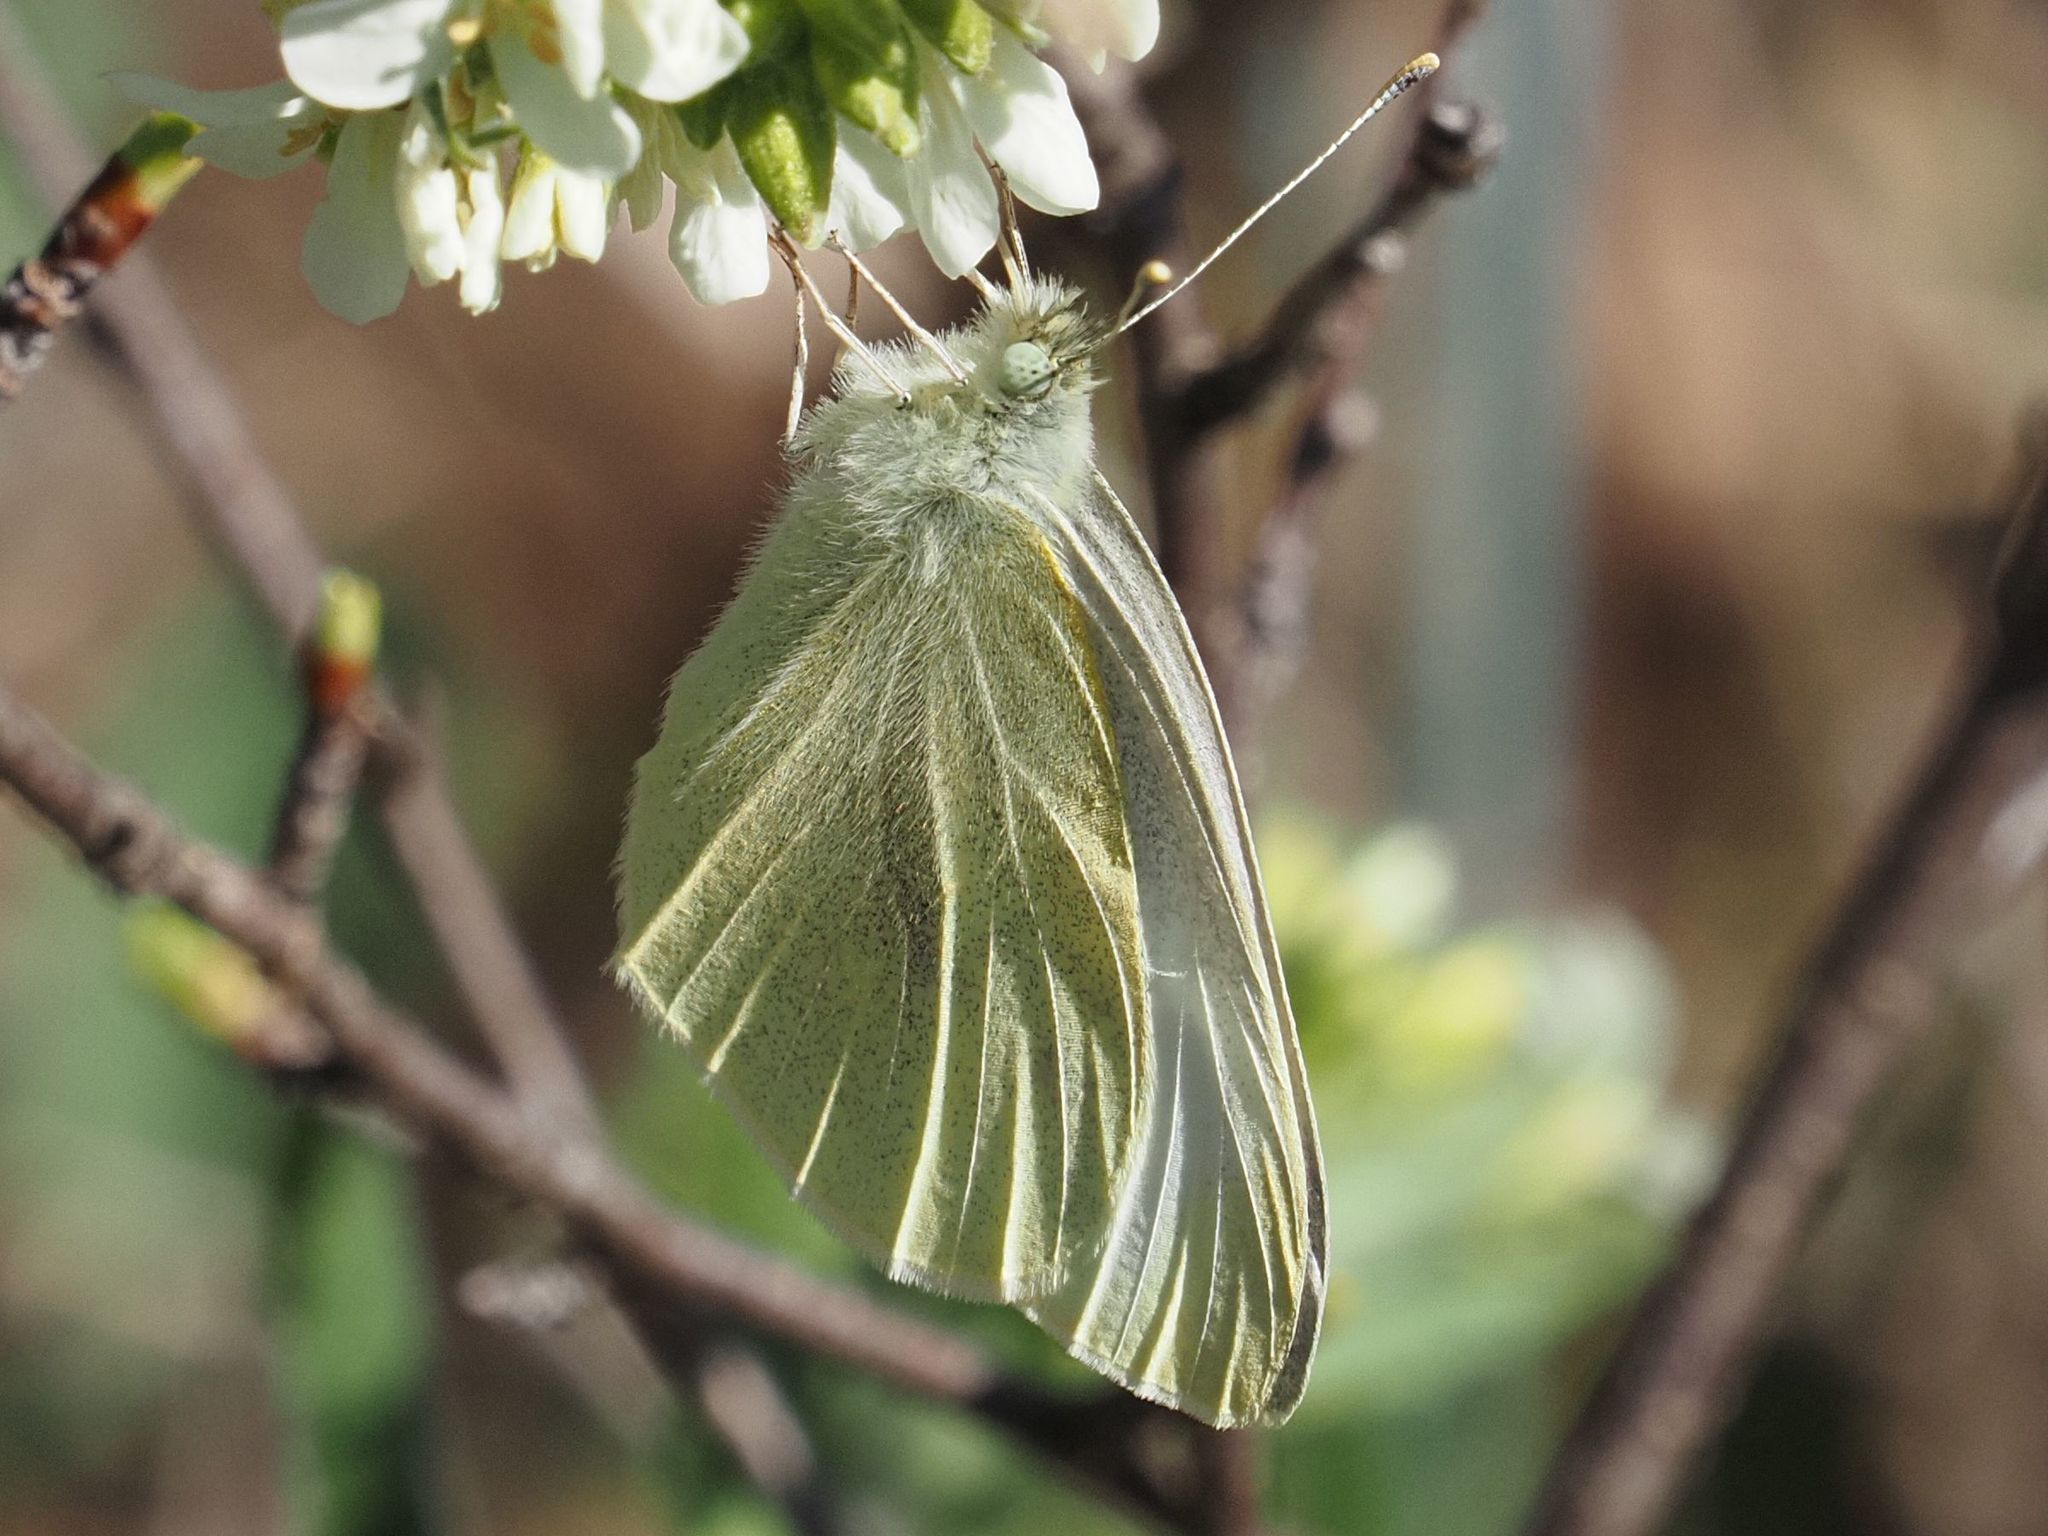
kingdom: Animalia
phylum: Arthropoda
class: Insecta
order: Lepidoptera
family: Pieridae
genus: Pieris
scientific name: Pieris rapae
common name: Small white
